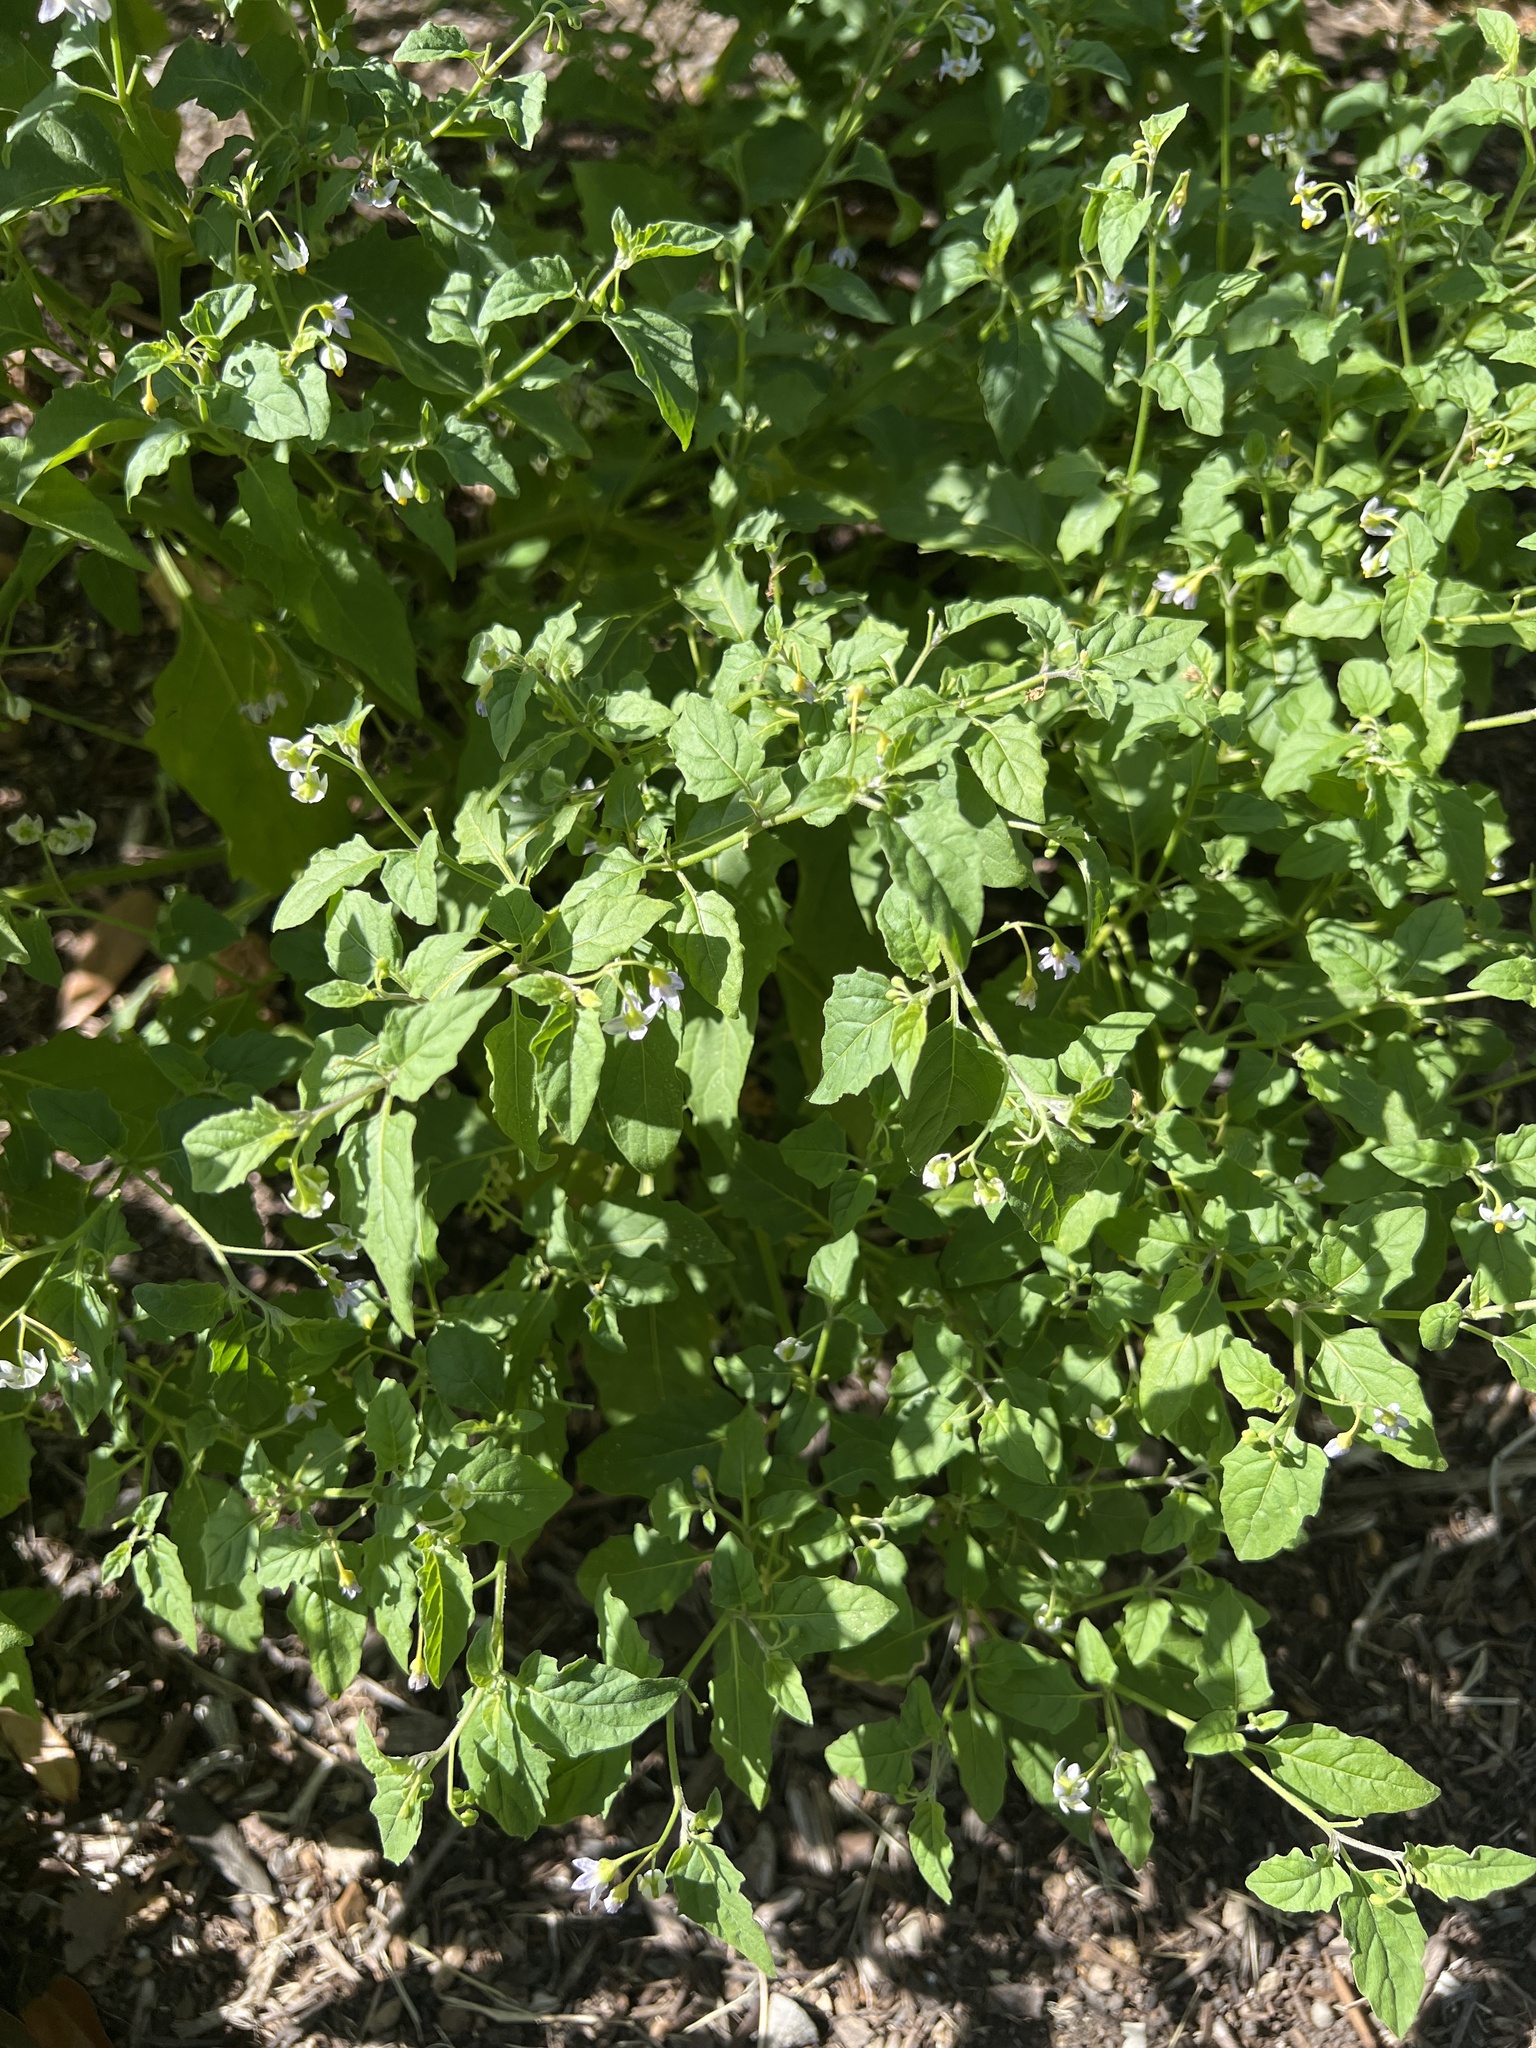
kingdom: Plantae
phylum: Tracheophyta
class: Magnoliopsida
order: Solanales
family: Solanaceae
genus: Solanum
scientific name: Solanum emulans
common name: Eastern black nightshade
